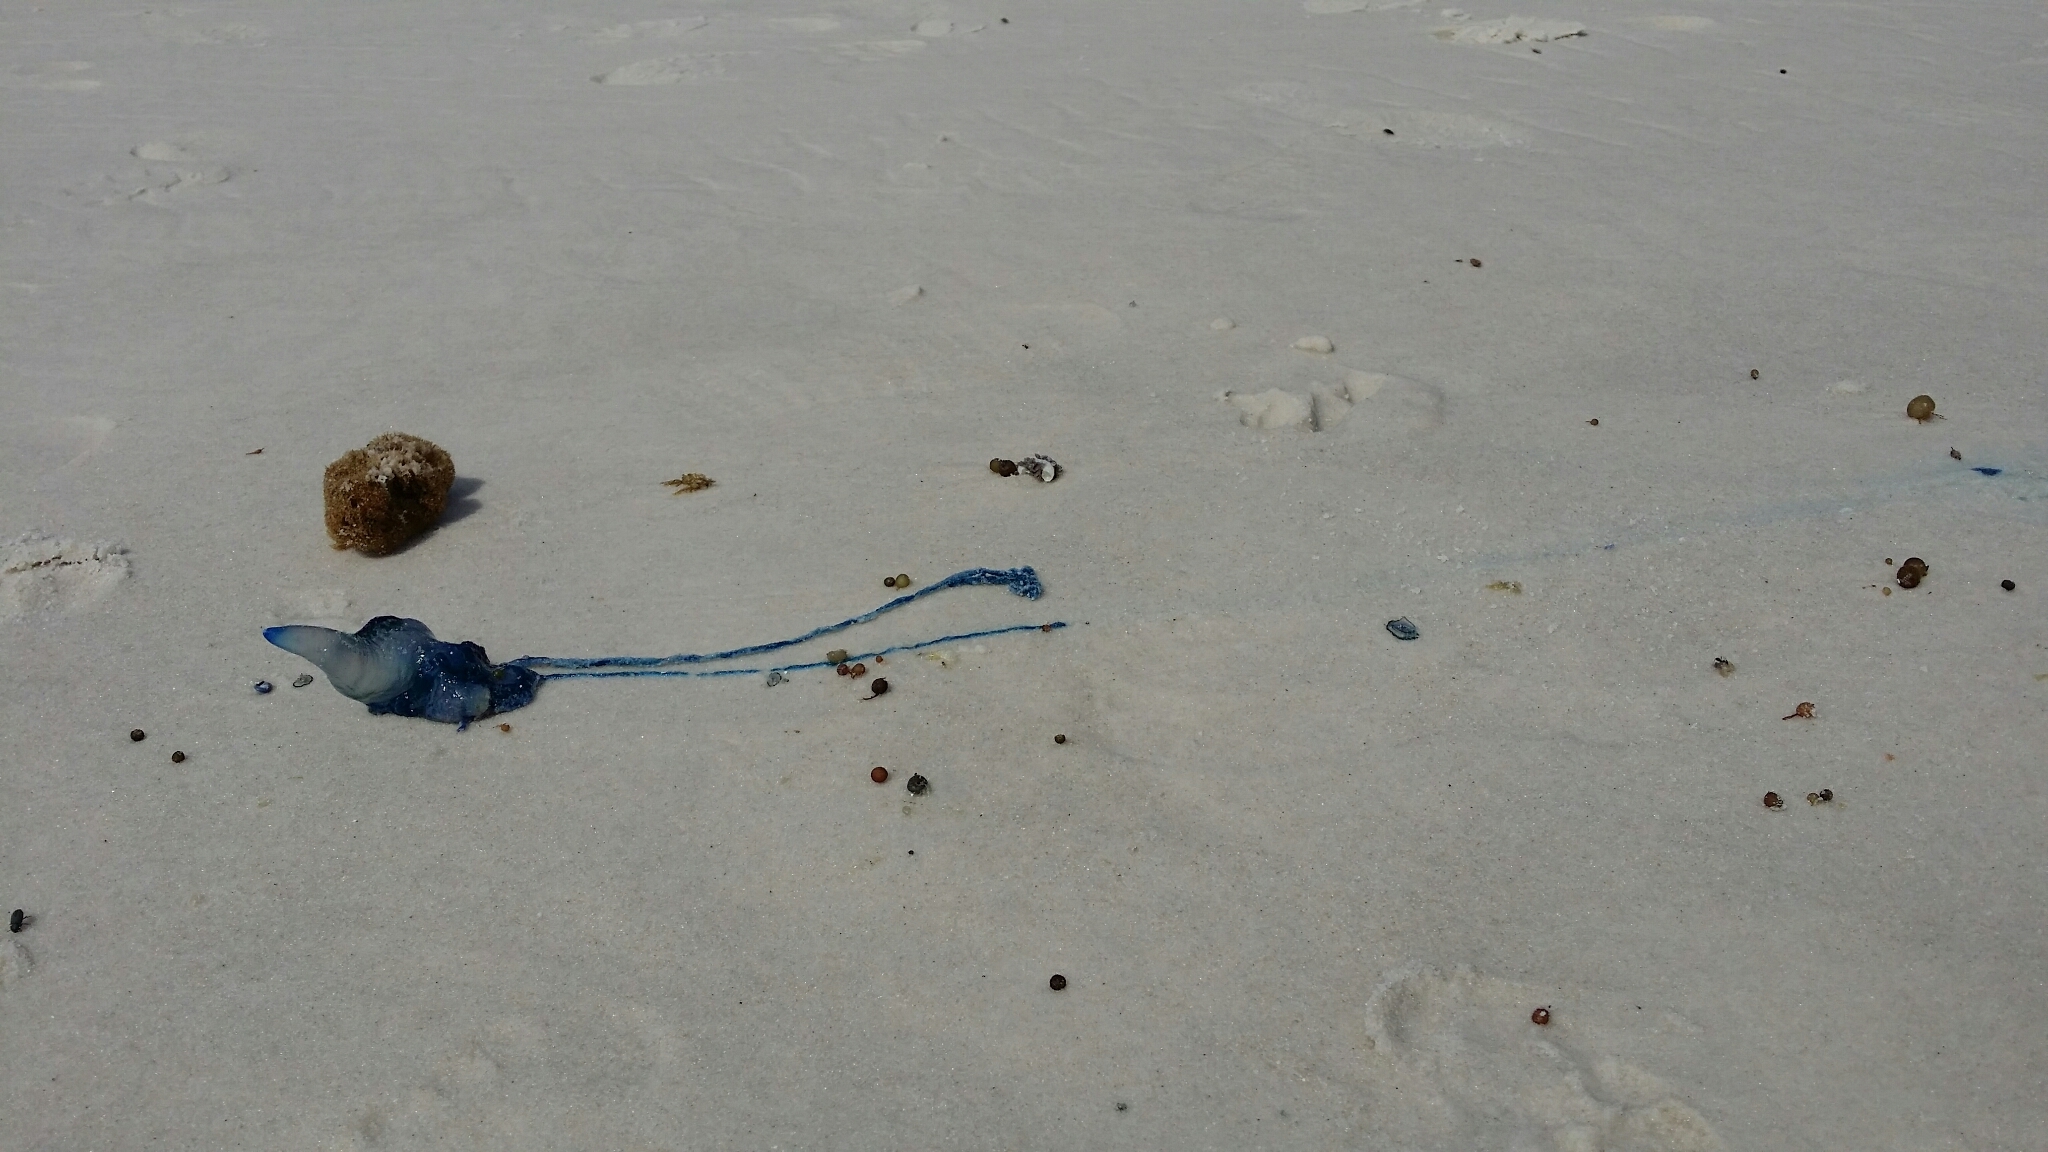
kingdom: Animalia
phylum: Cnidaria
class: Hydrozoa
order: Siphonophorae
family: Physaliidae
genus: Physalia
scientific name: Physalia physalis
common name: Portuguese man-of-war
